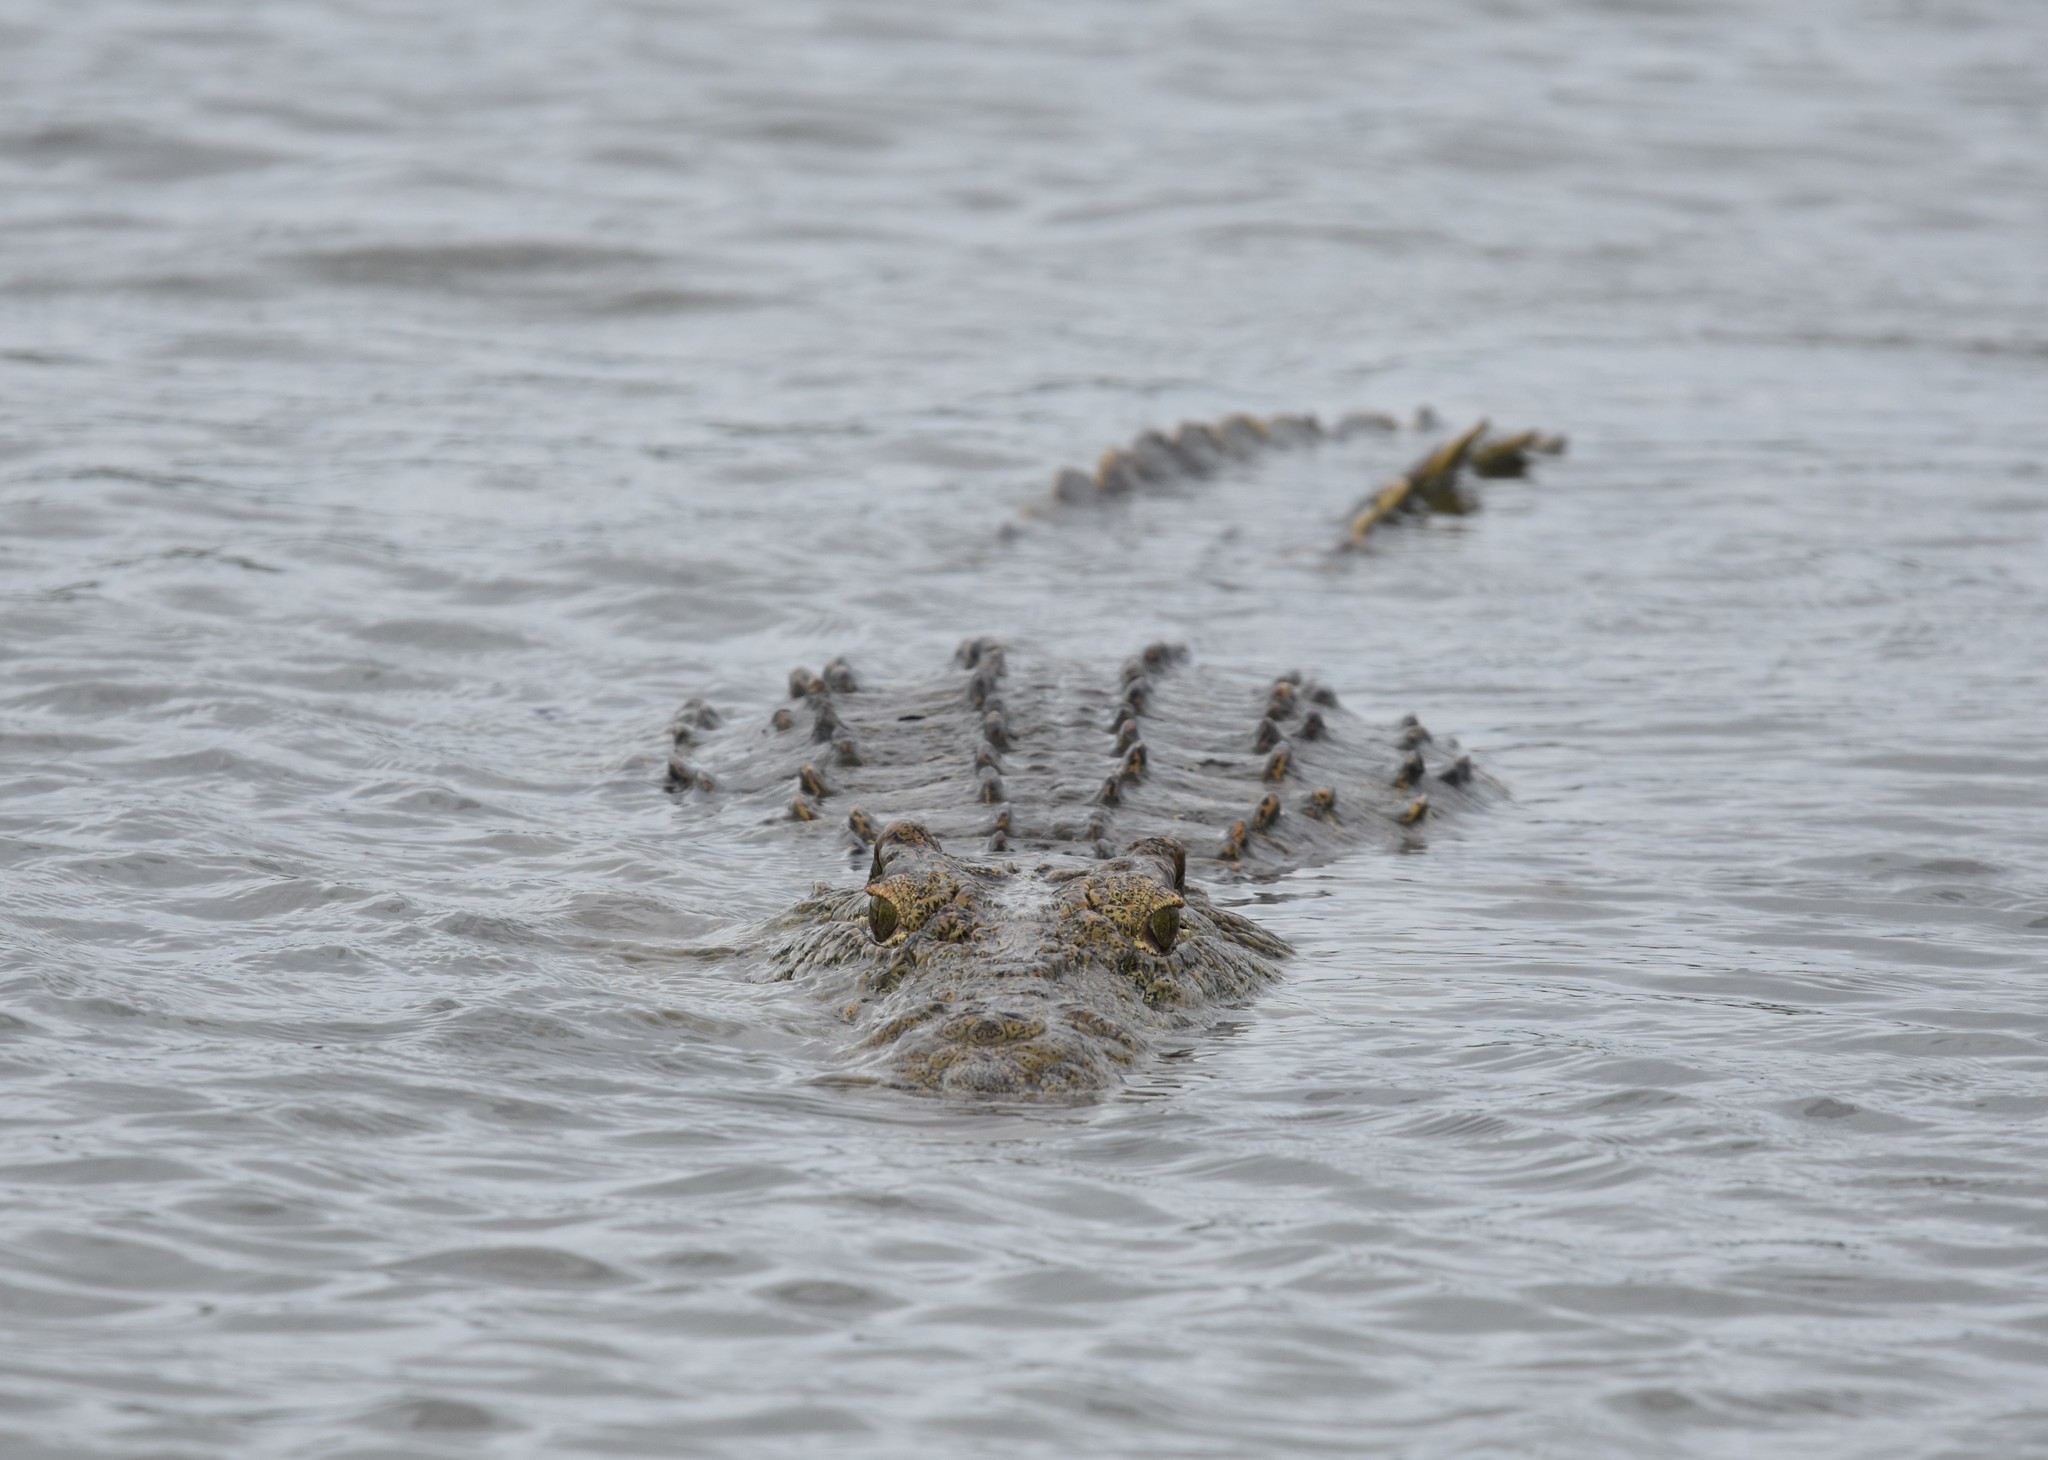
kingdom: Animalia
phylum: Chordata
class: Crocodylia
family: Crocodylidae
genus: Crocodylus
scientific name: Crocodylus niloticus
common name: Nile crocodile
